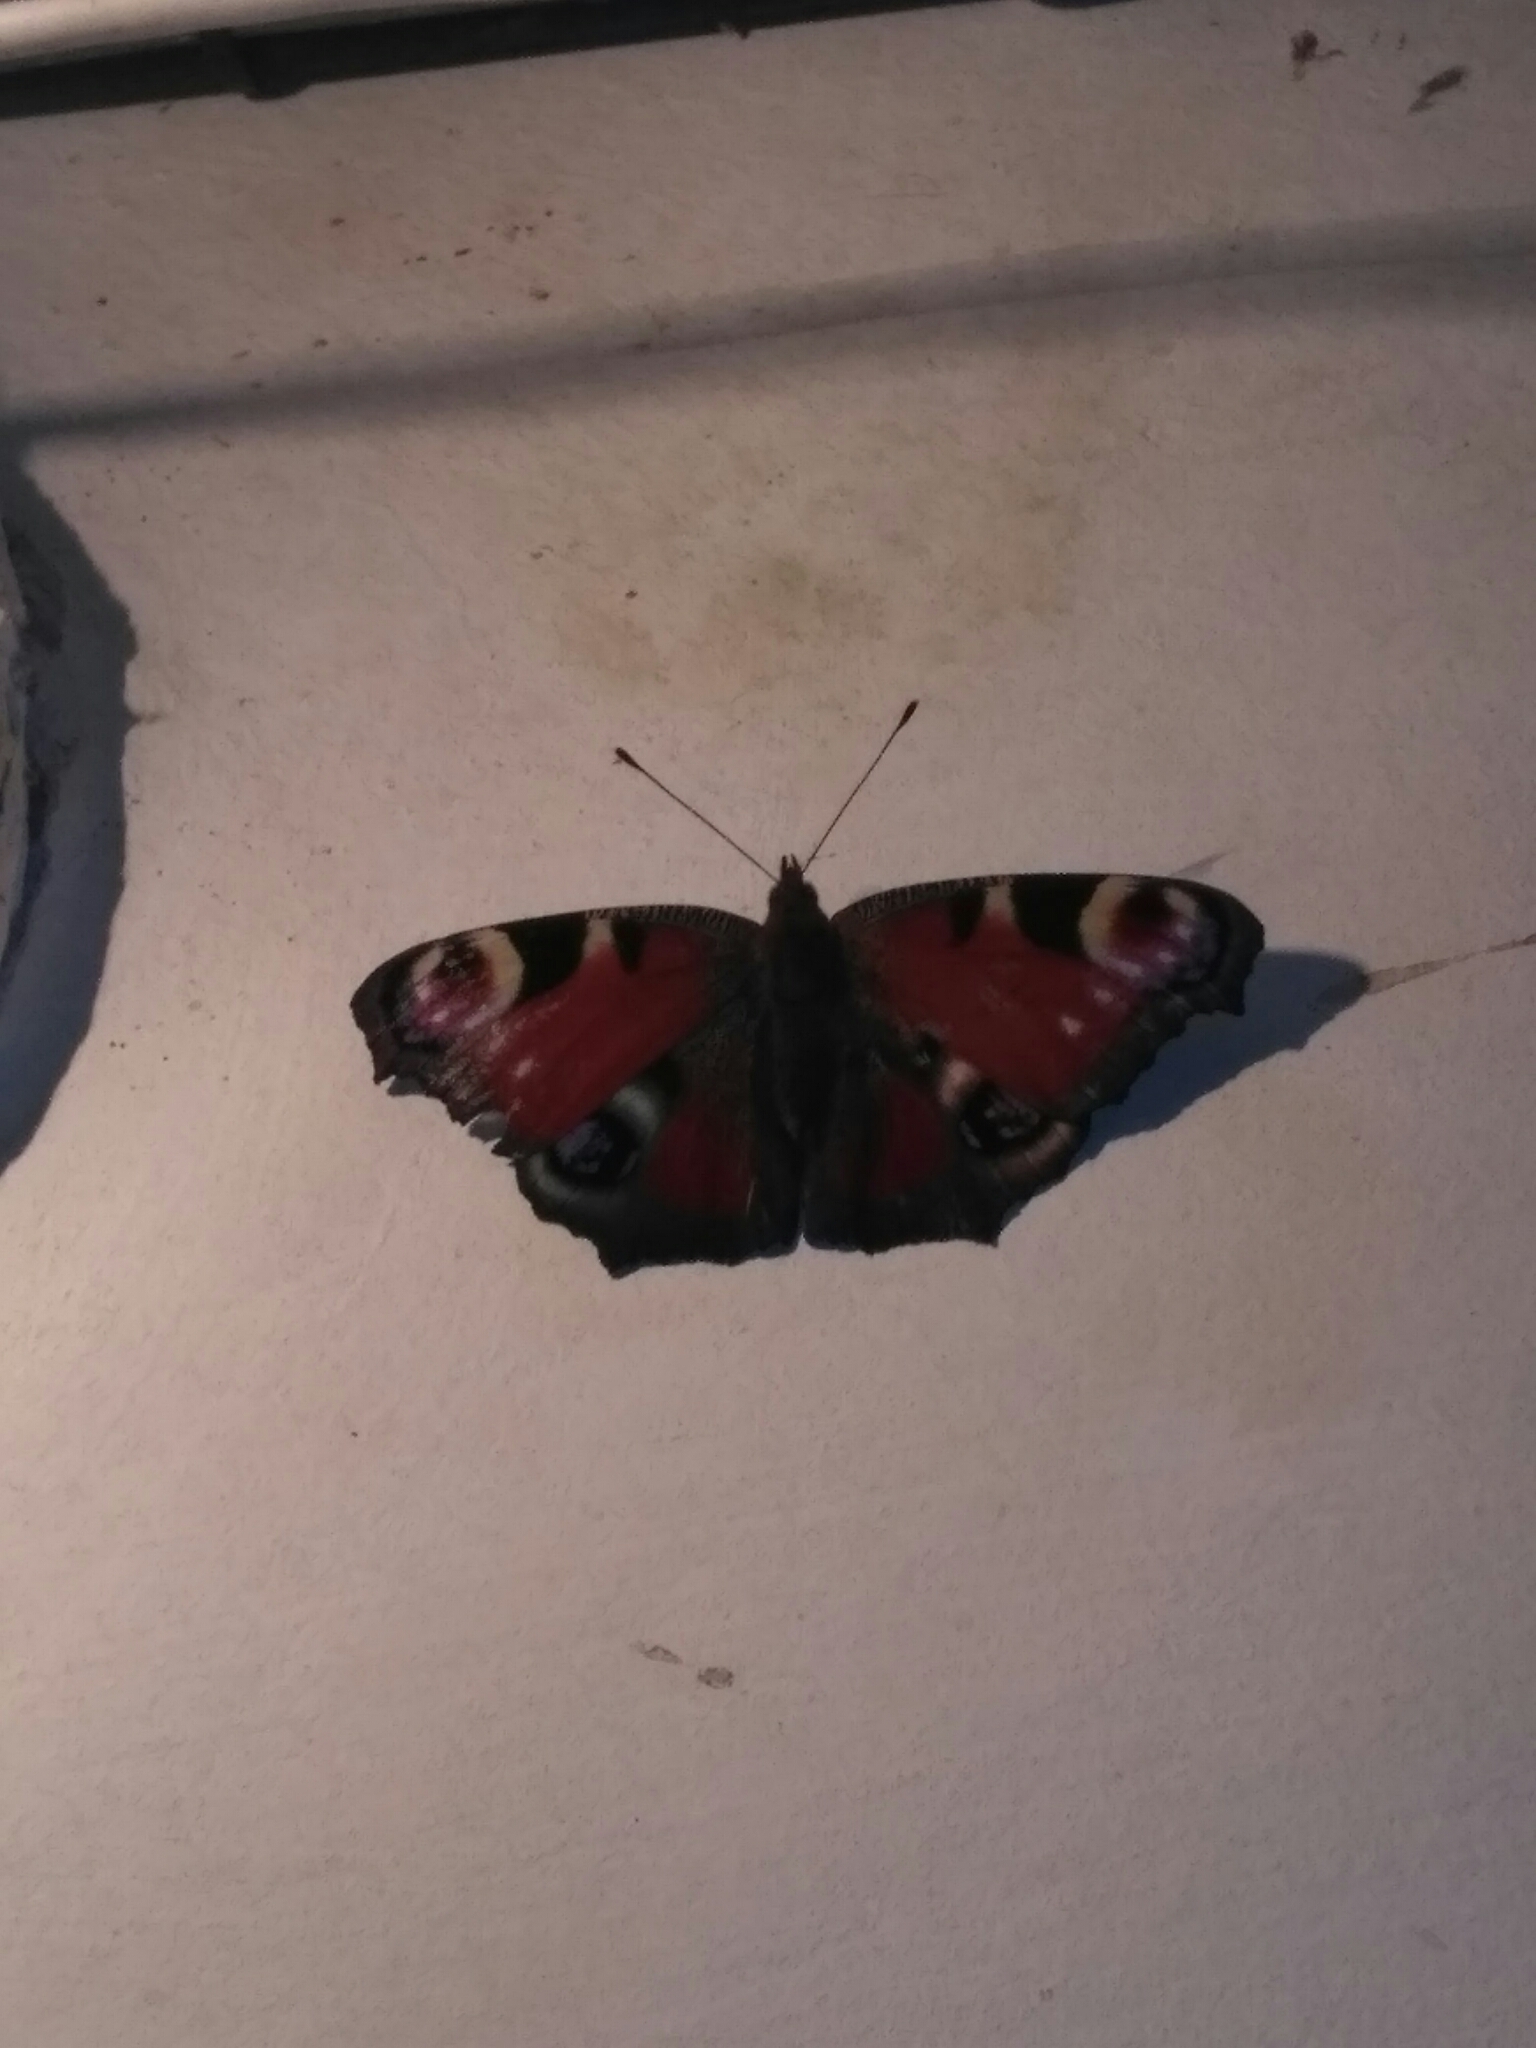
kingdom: Animalia
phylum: Arthropoda
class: Insecta
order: Lepidoptera
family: Nymphalidae
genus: Aglais
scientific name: Aglais io
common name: Peacock
